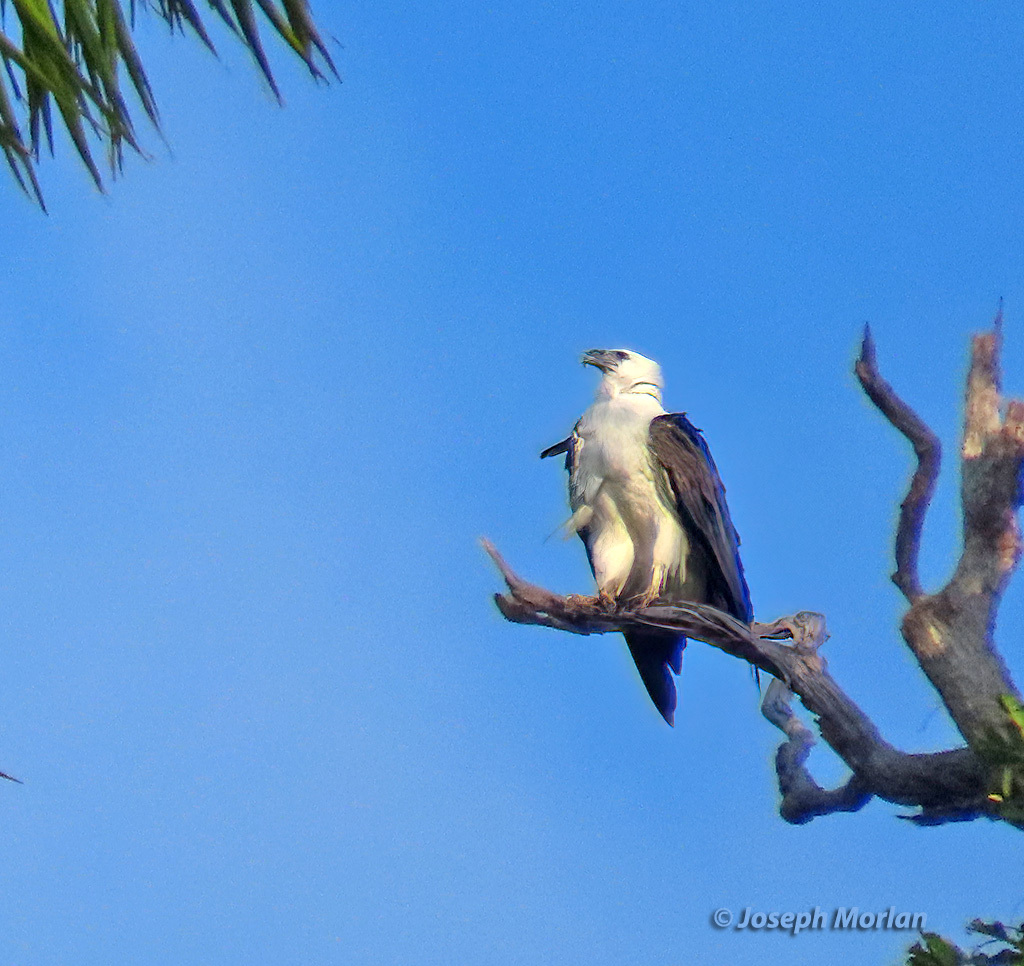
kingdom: Animalia
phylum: Chordata
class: Aves
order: Accipitriformes
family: Accipitridae
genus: Haliaeetus
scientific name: Haliaeetus leucogaster
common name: White-bellied sea eagle
